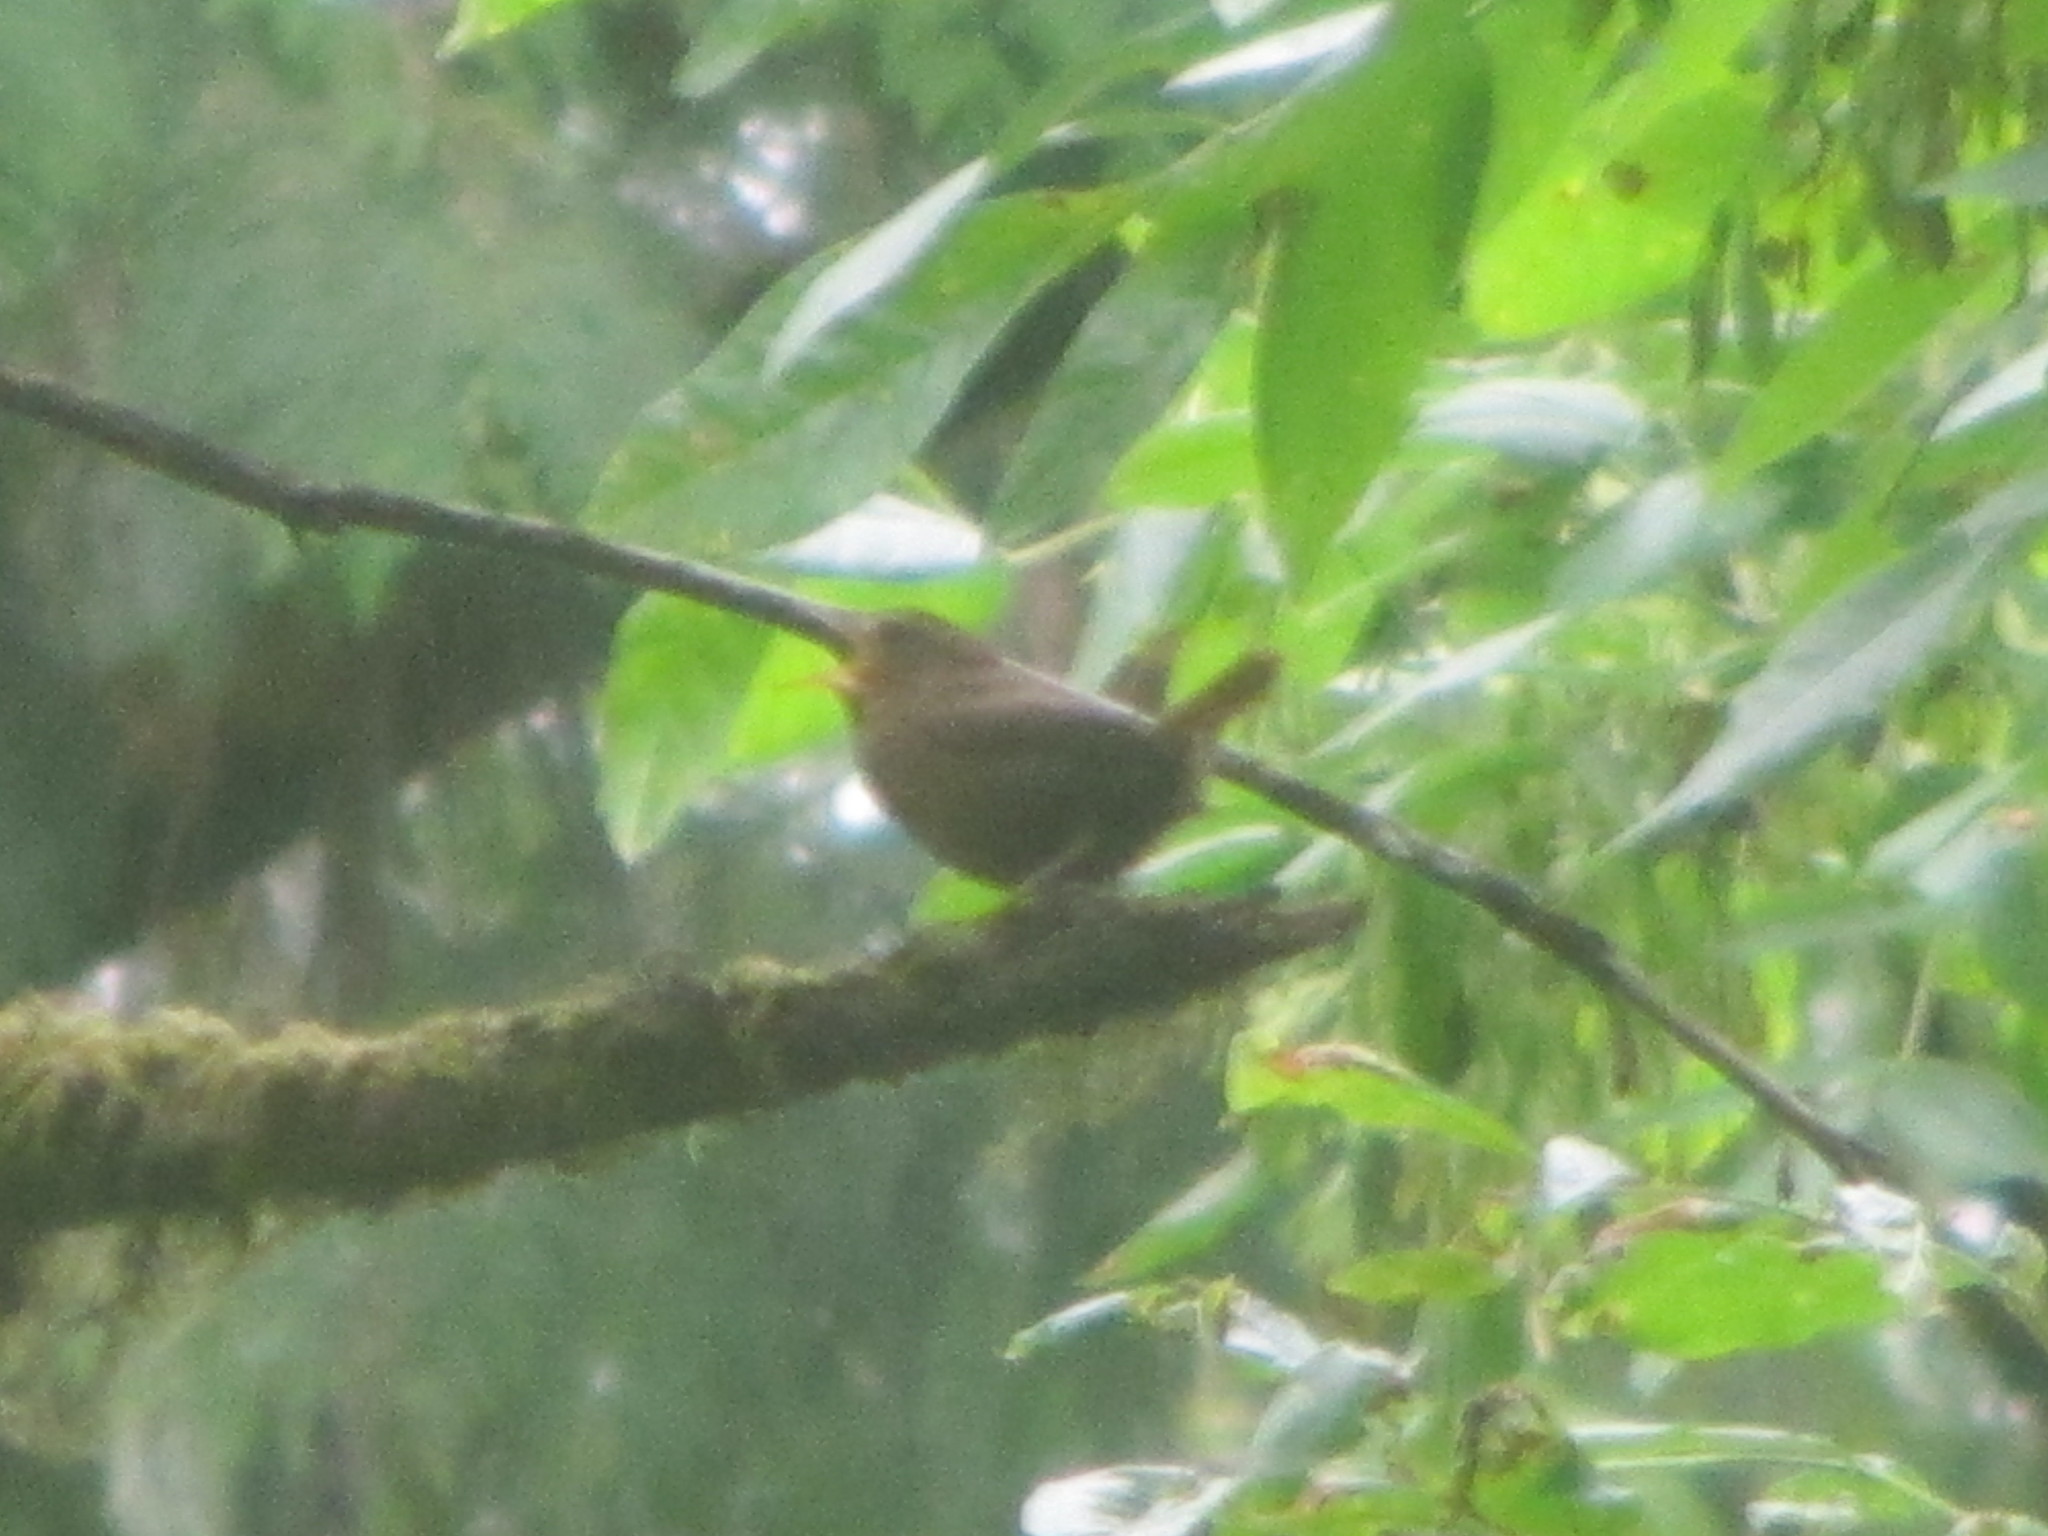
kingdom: Animalia
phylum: Chordata
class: Aves
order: Passeriformes
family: Troglodytidae
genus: Troglodytes
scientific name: Troglodytes pacificus
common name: Pacific wren
